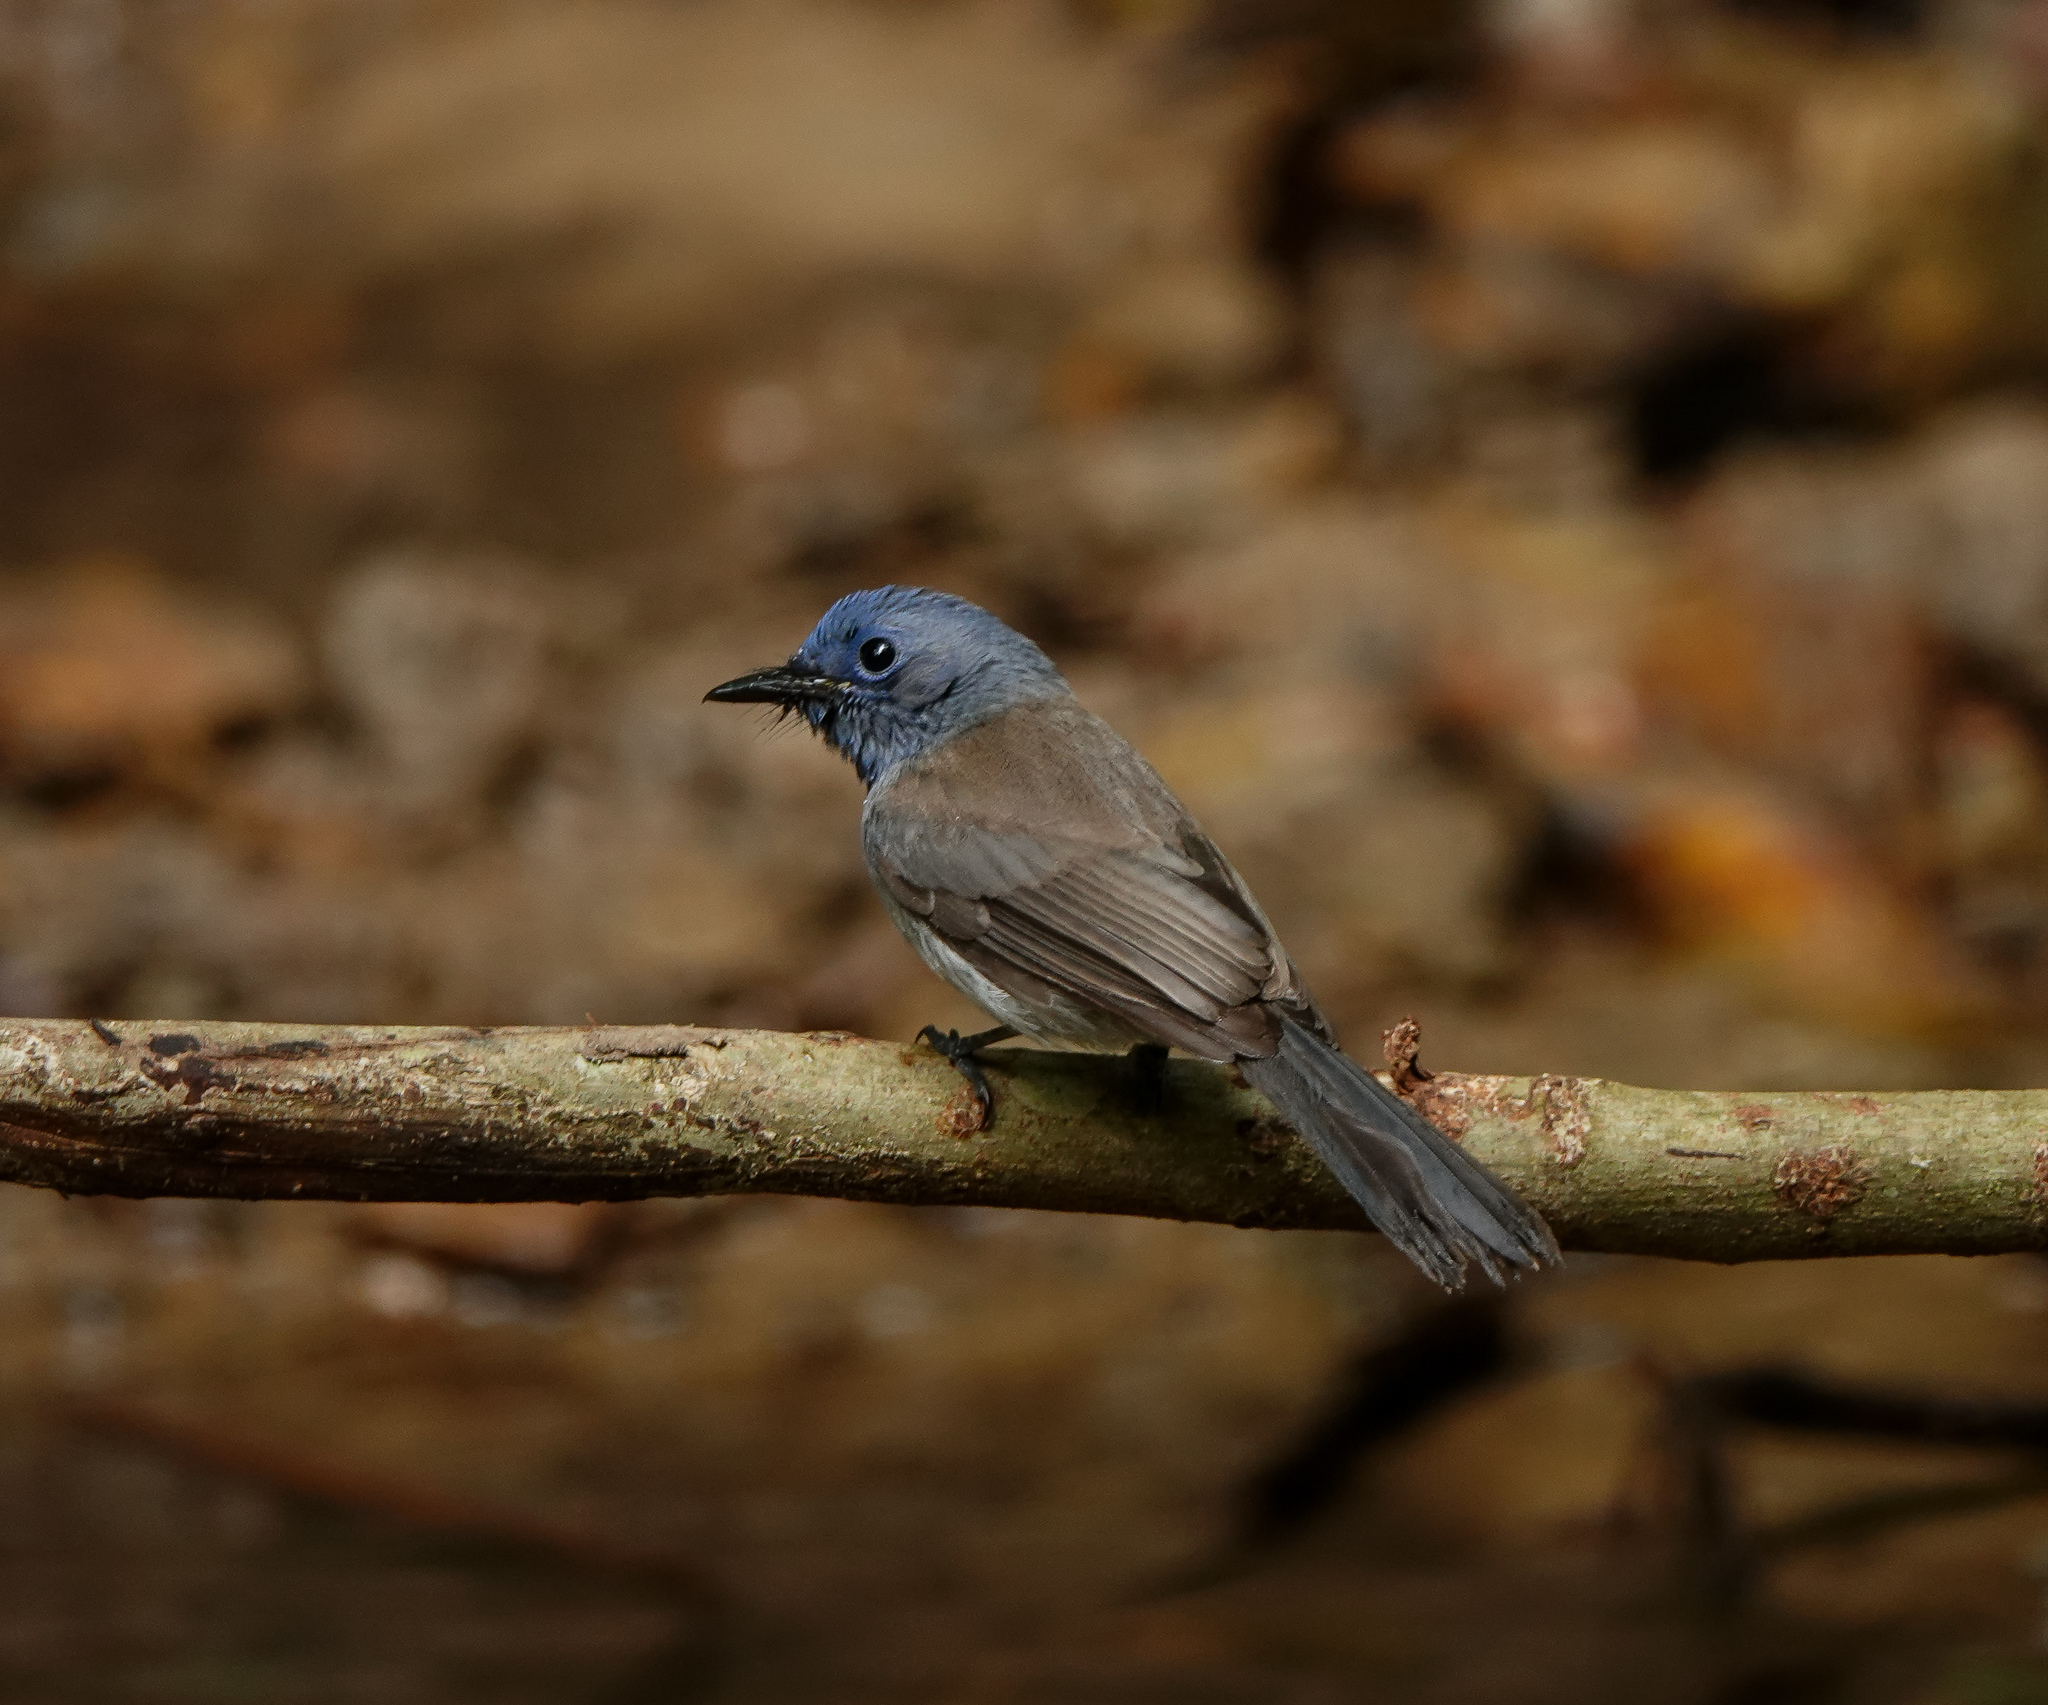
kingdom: Animalia
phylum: Chordata
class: Aves
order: Passeriformes
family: Monarchidae
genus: Hypothymis
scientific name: Hypothymis azurea
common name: Black-naped monarch
